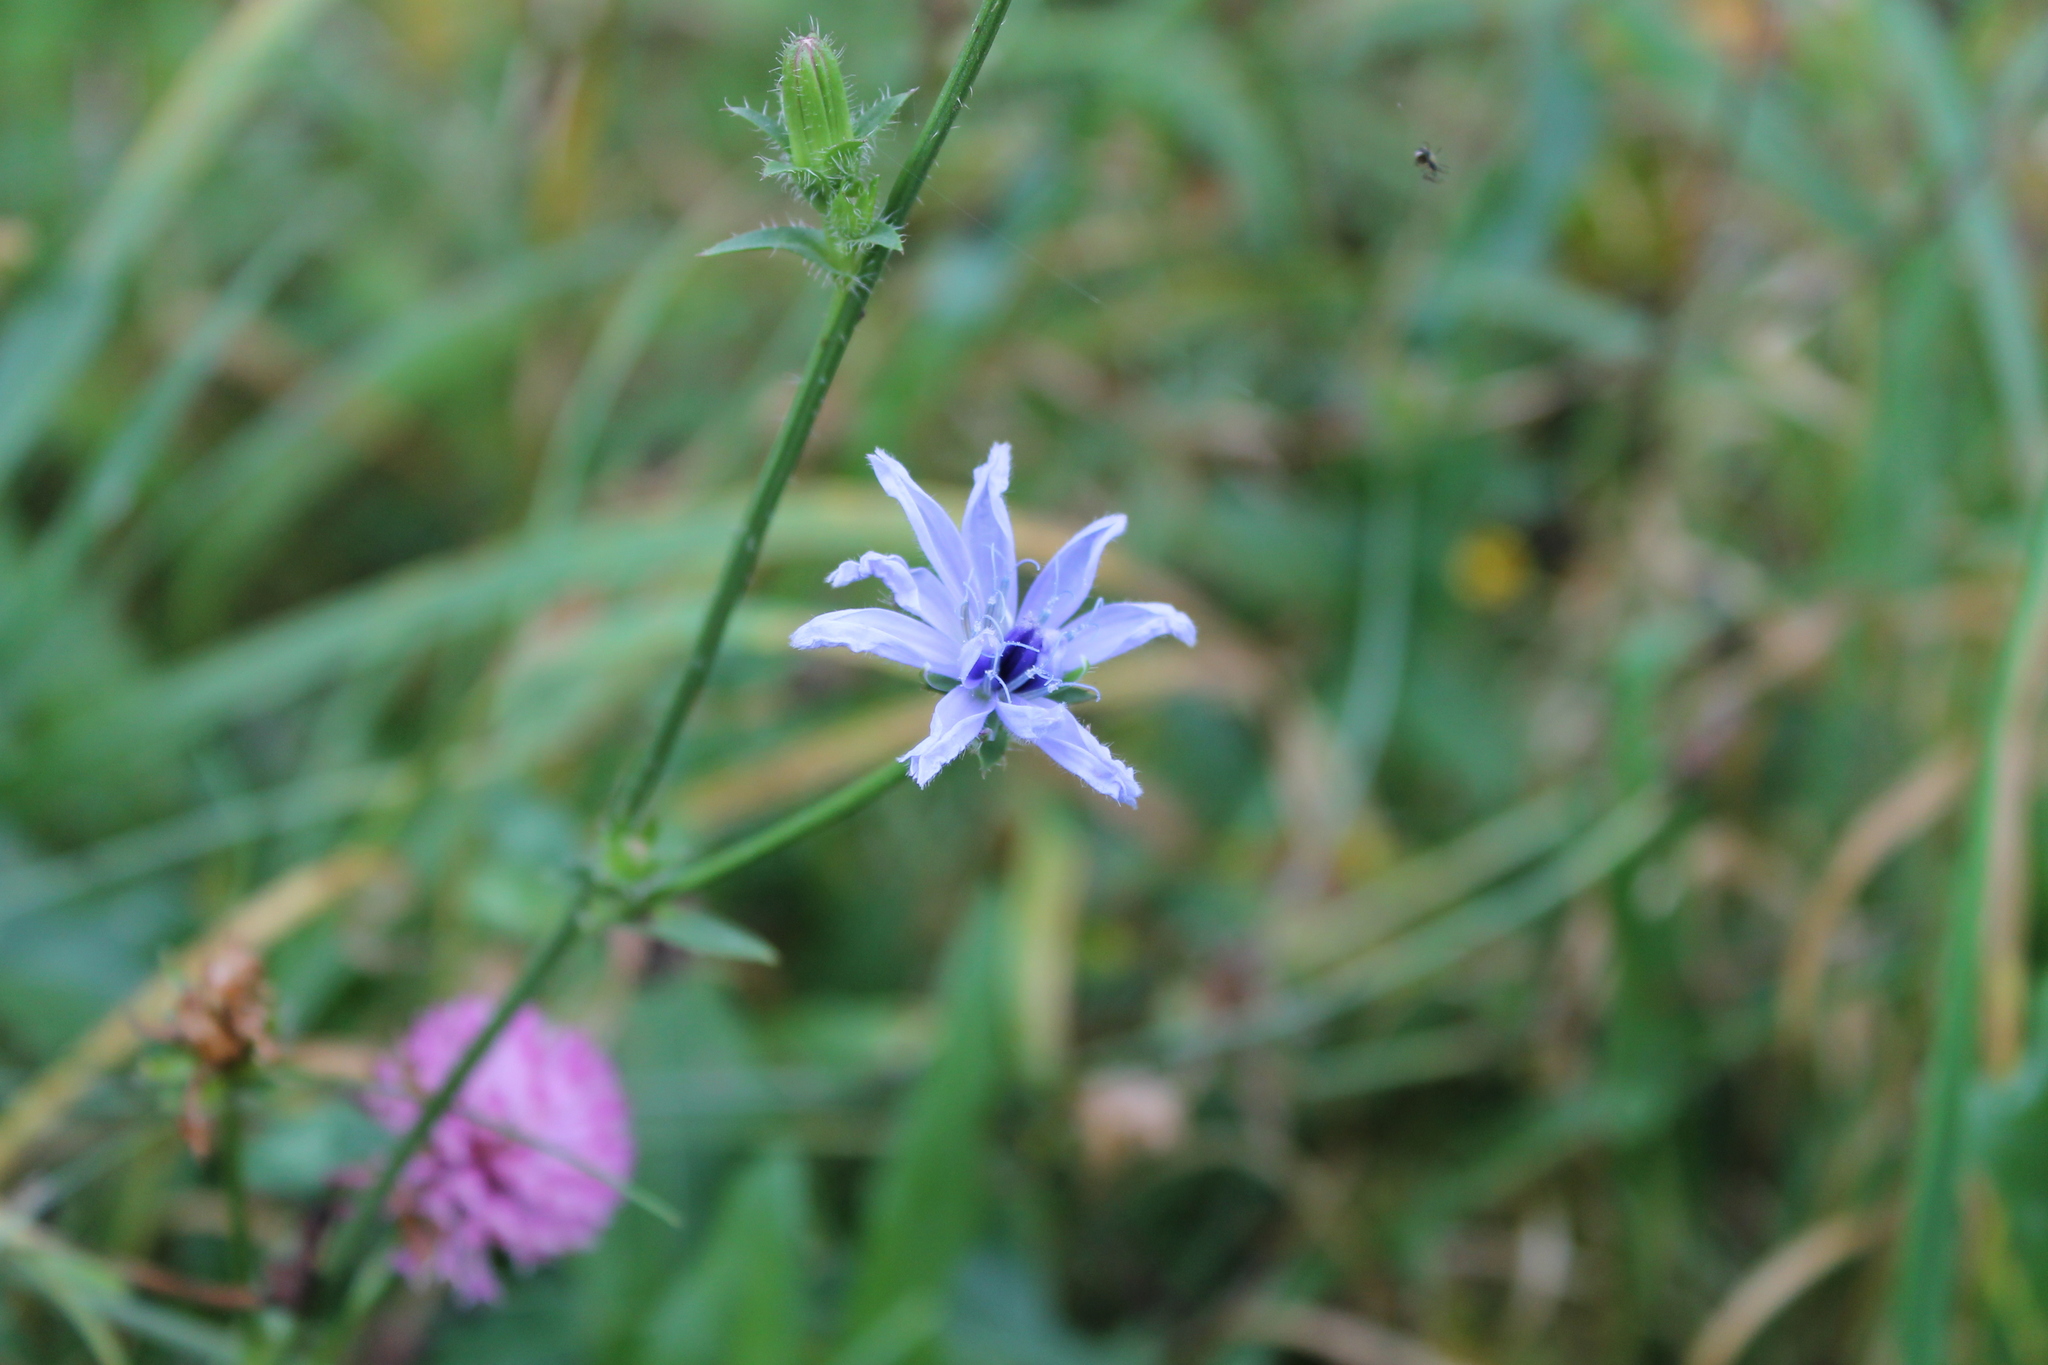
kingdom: Plantae
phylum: Tracheophyta
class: Magnoliopsida
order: Asterales
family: Asteraceae
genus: Cichorium
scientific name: Cichorium intybus
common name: Chicory
